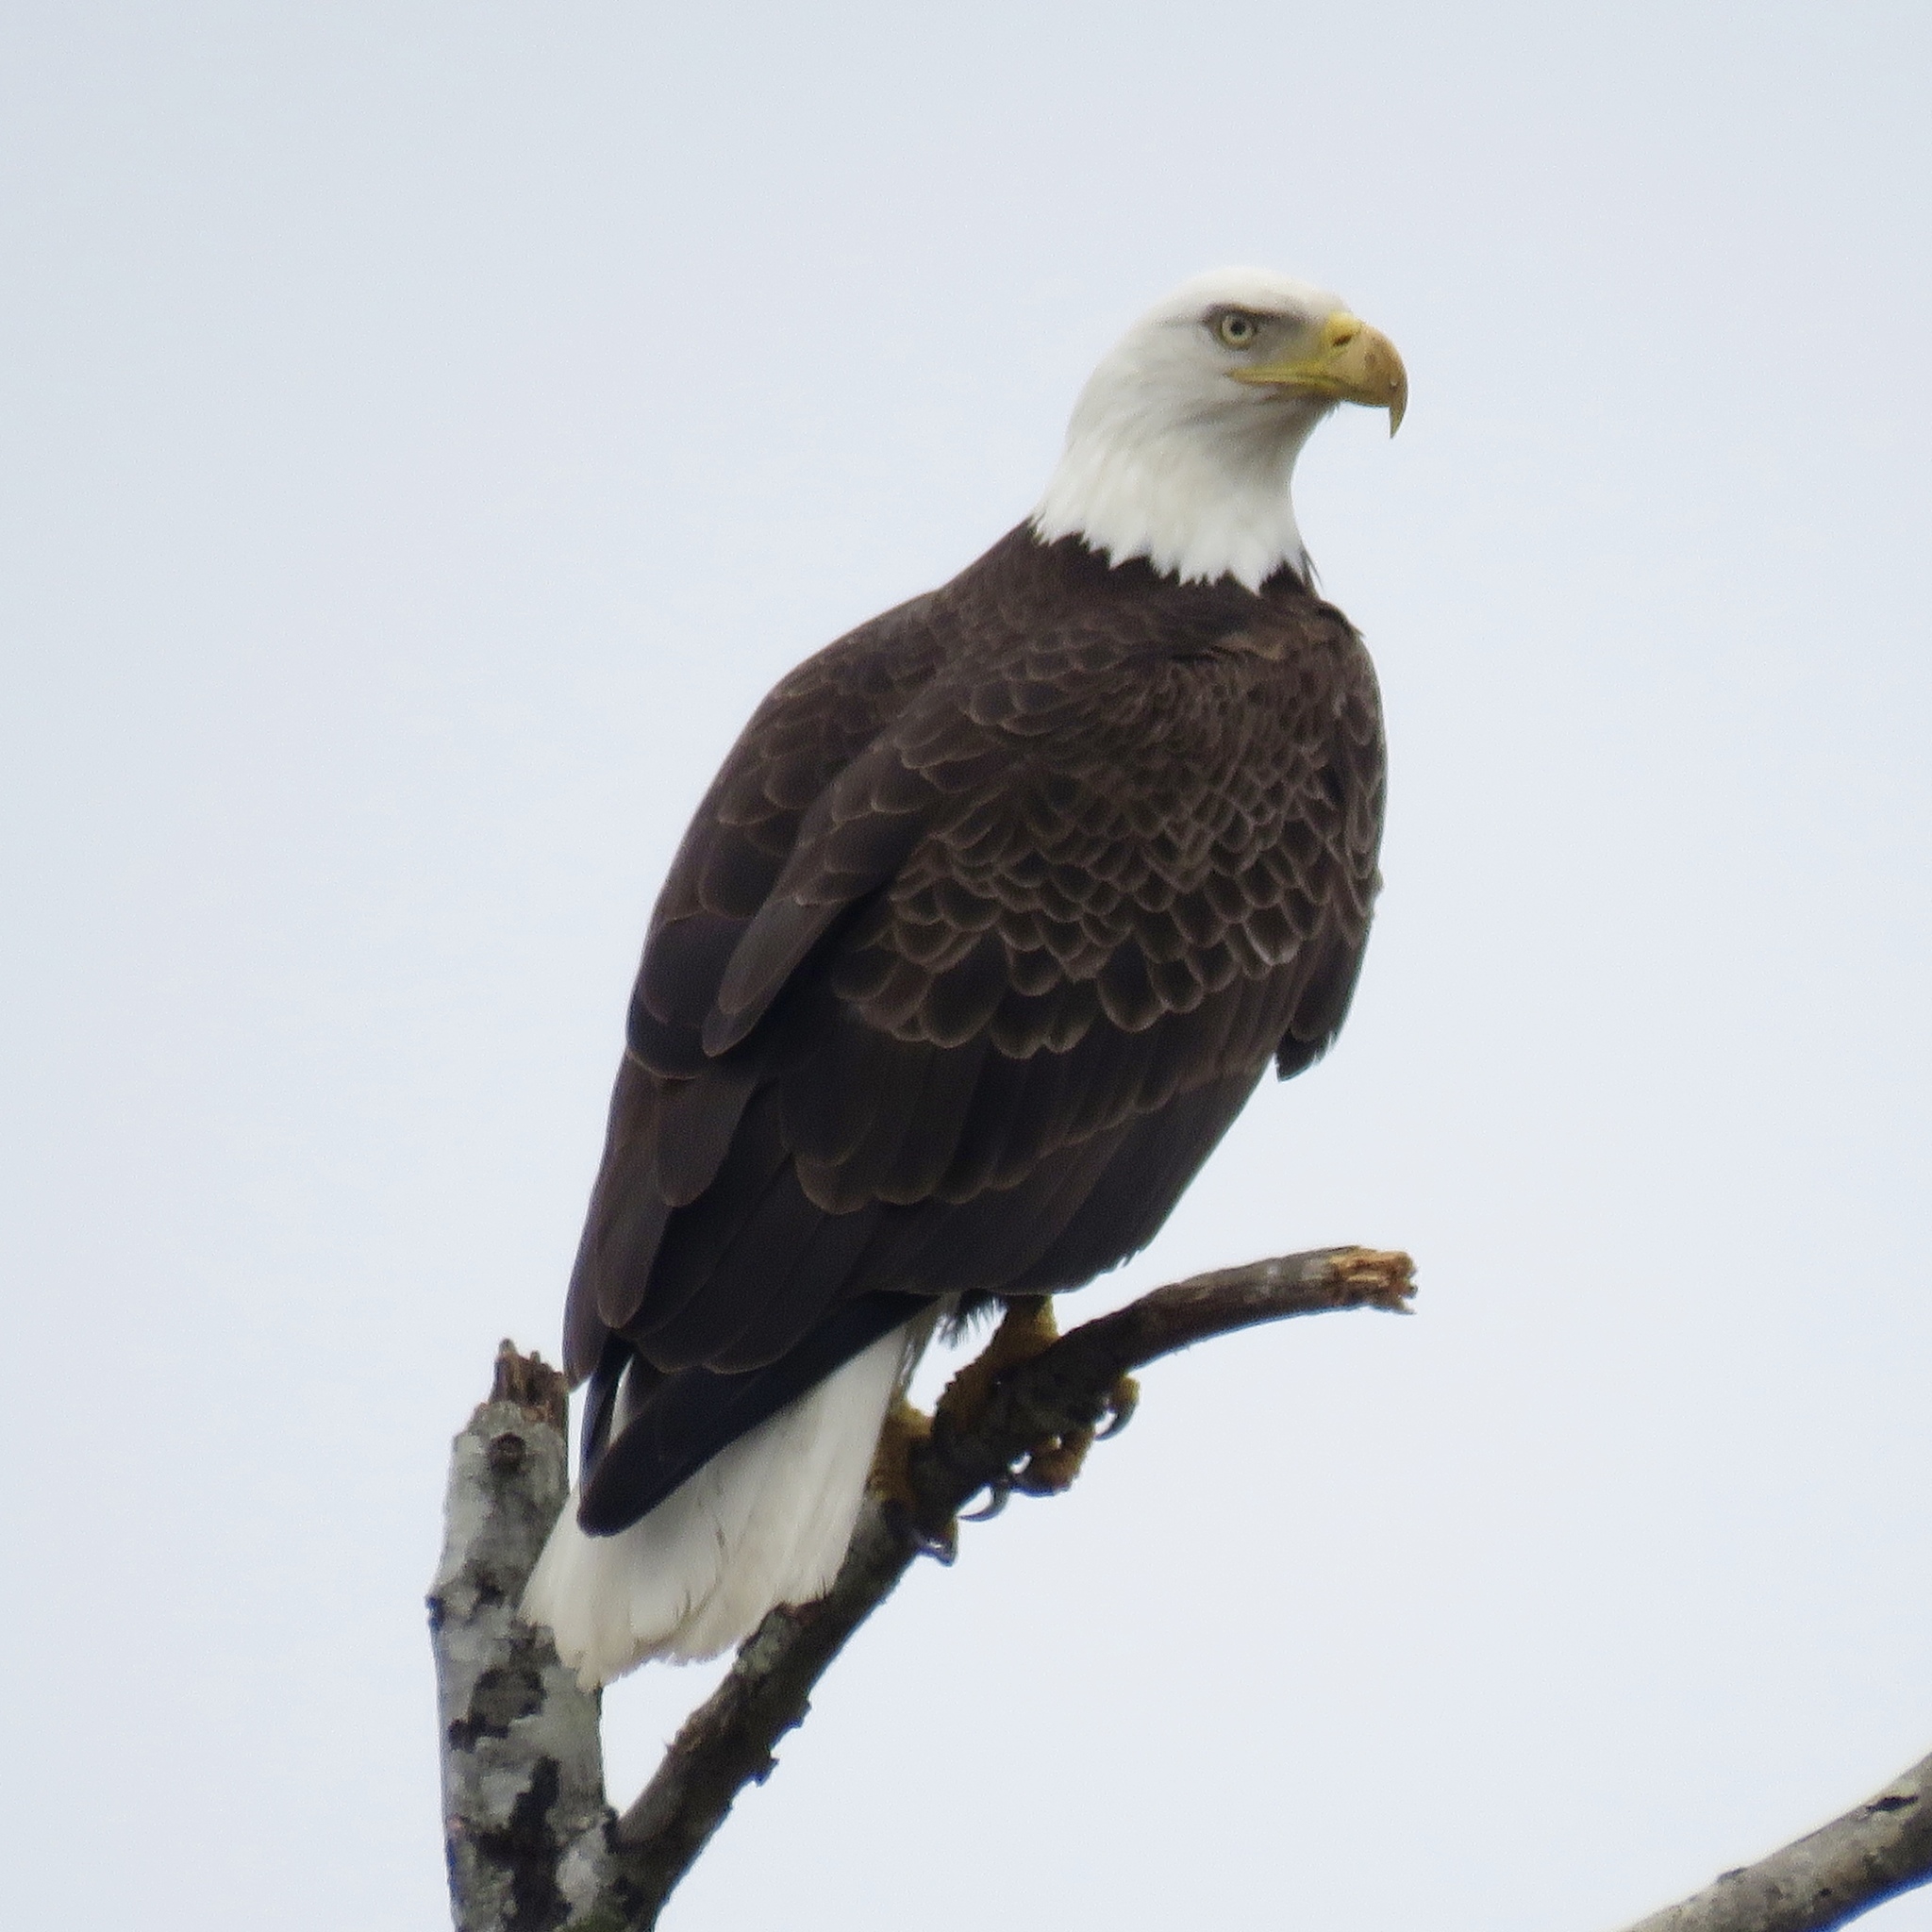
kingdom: Animalia
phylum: Chordata
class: Aves
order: Accipitriformes
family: Accipitridae
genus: Haliaeetus
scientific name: Haliaeetus leucocephalus
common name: Bald eagle
